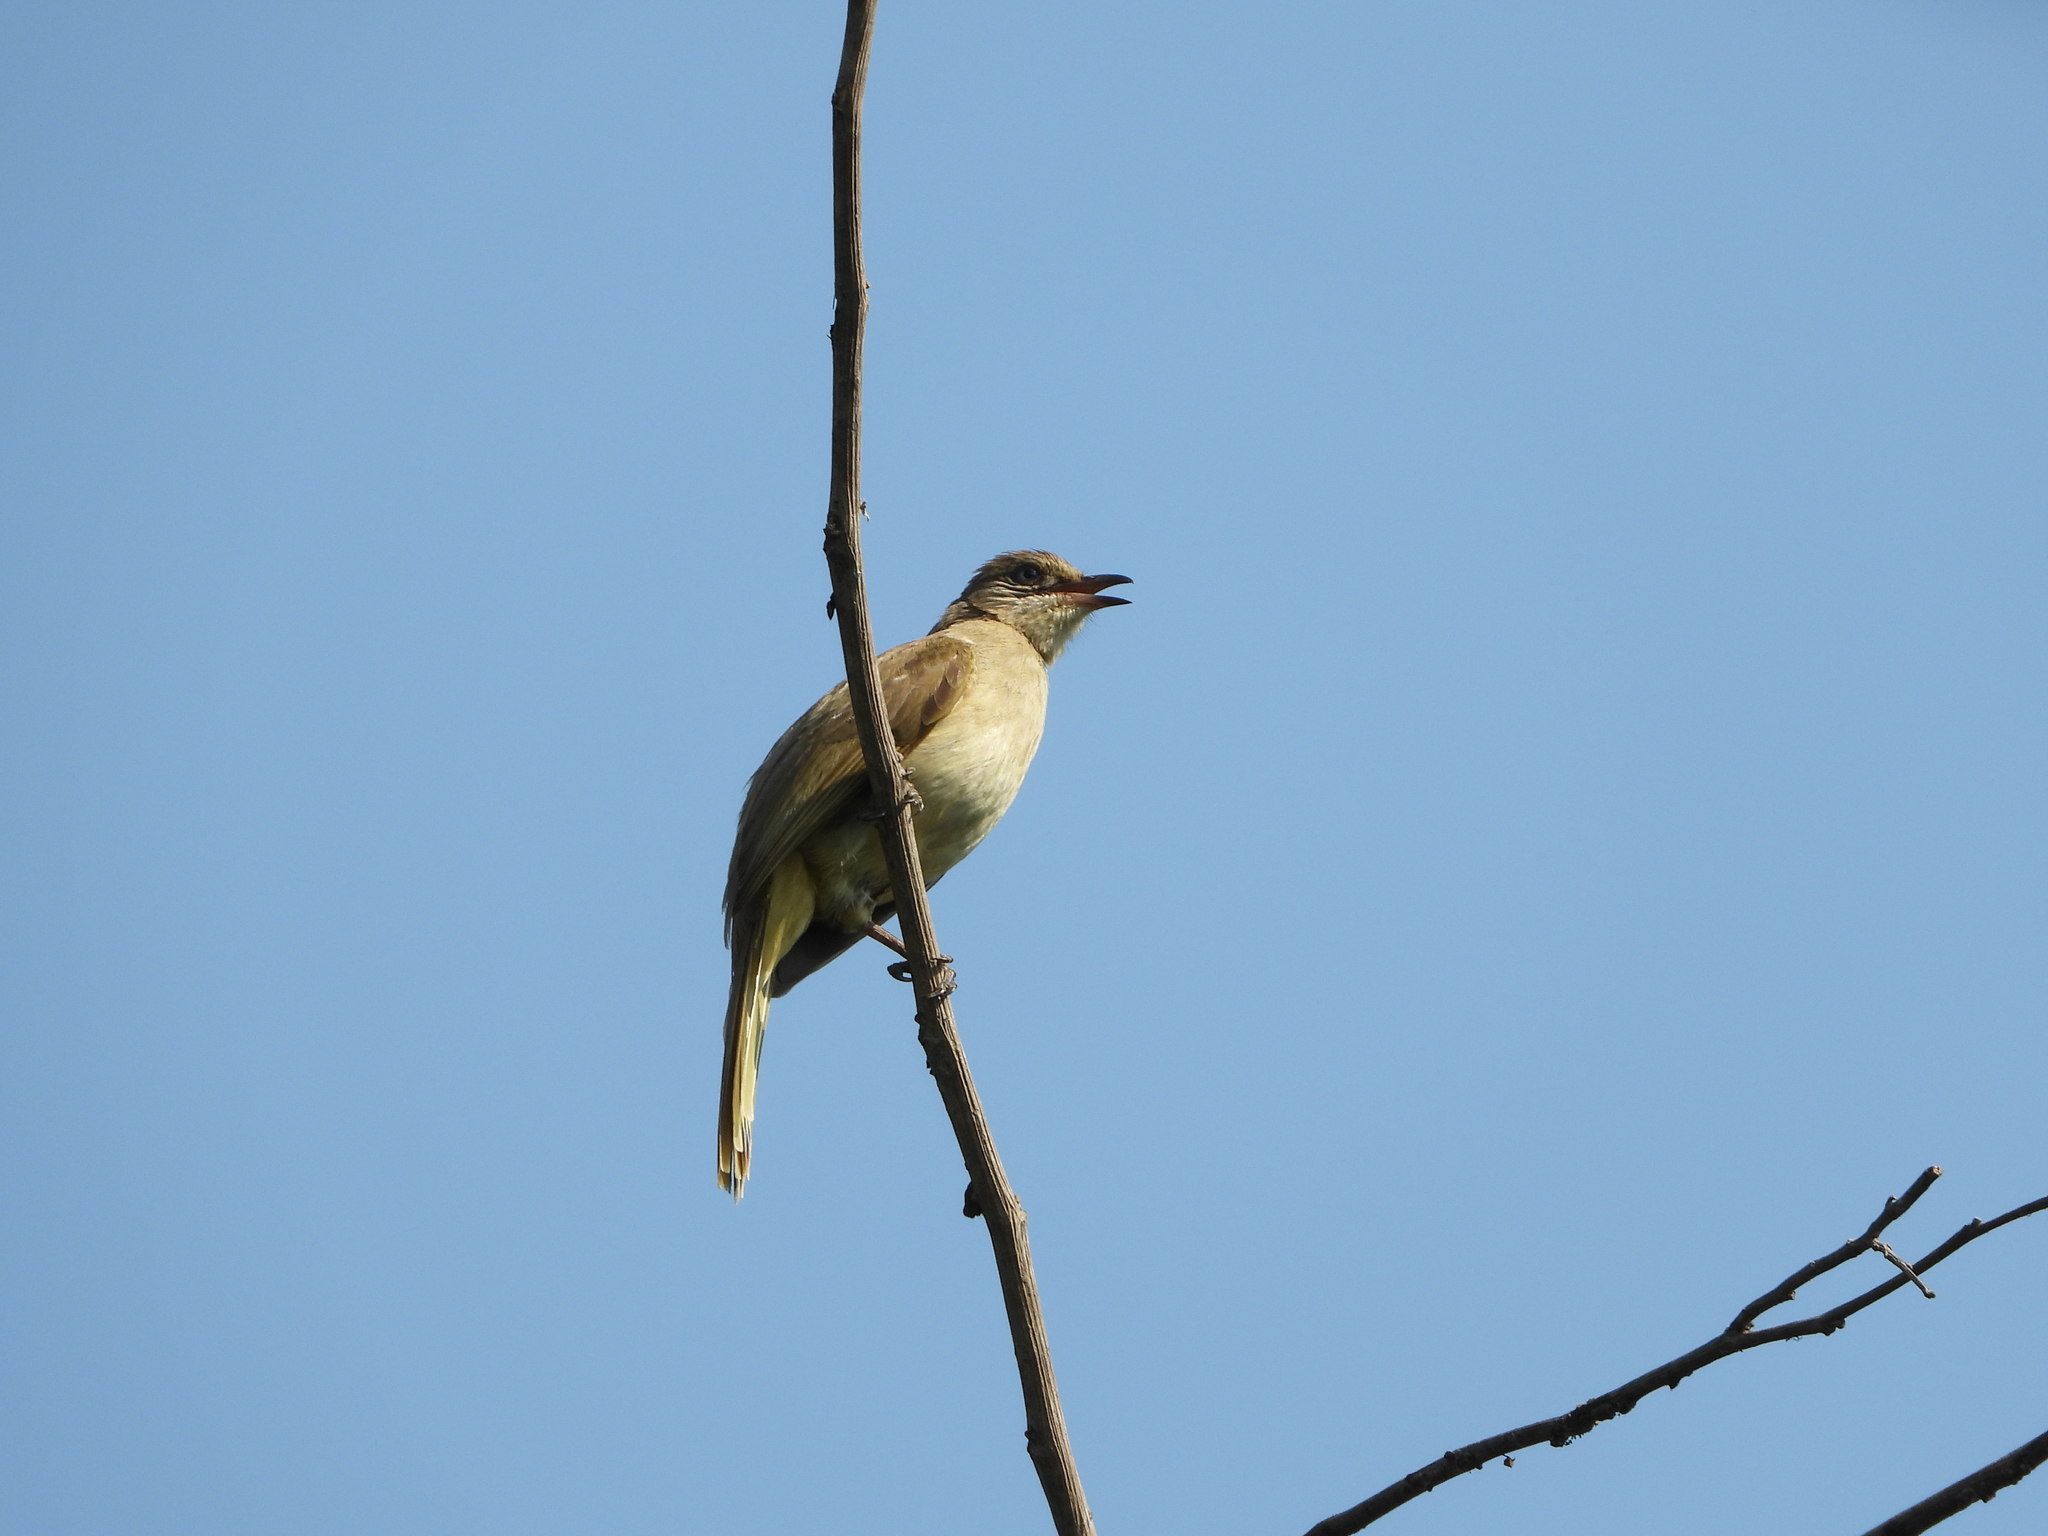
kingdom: Animalia
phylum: Chordata
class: Aves
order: Passeriformes
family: Pycnonotidae
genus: Pycnonotus
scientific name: Pycnonotus blanfordi
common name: Streak-eared bulbul
